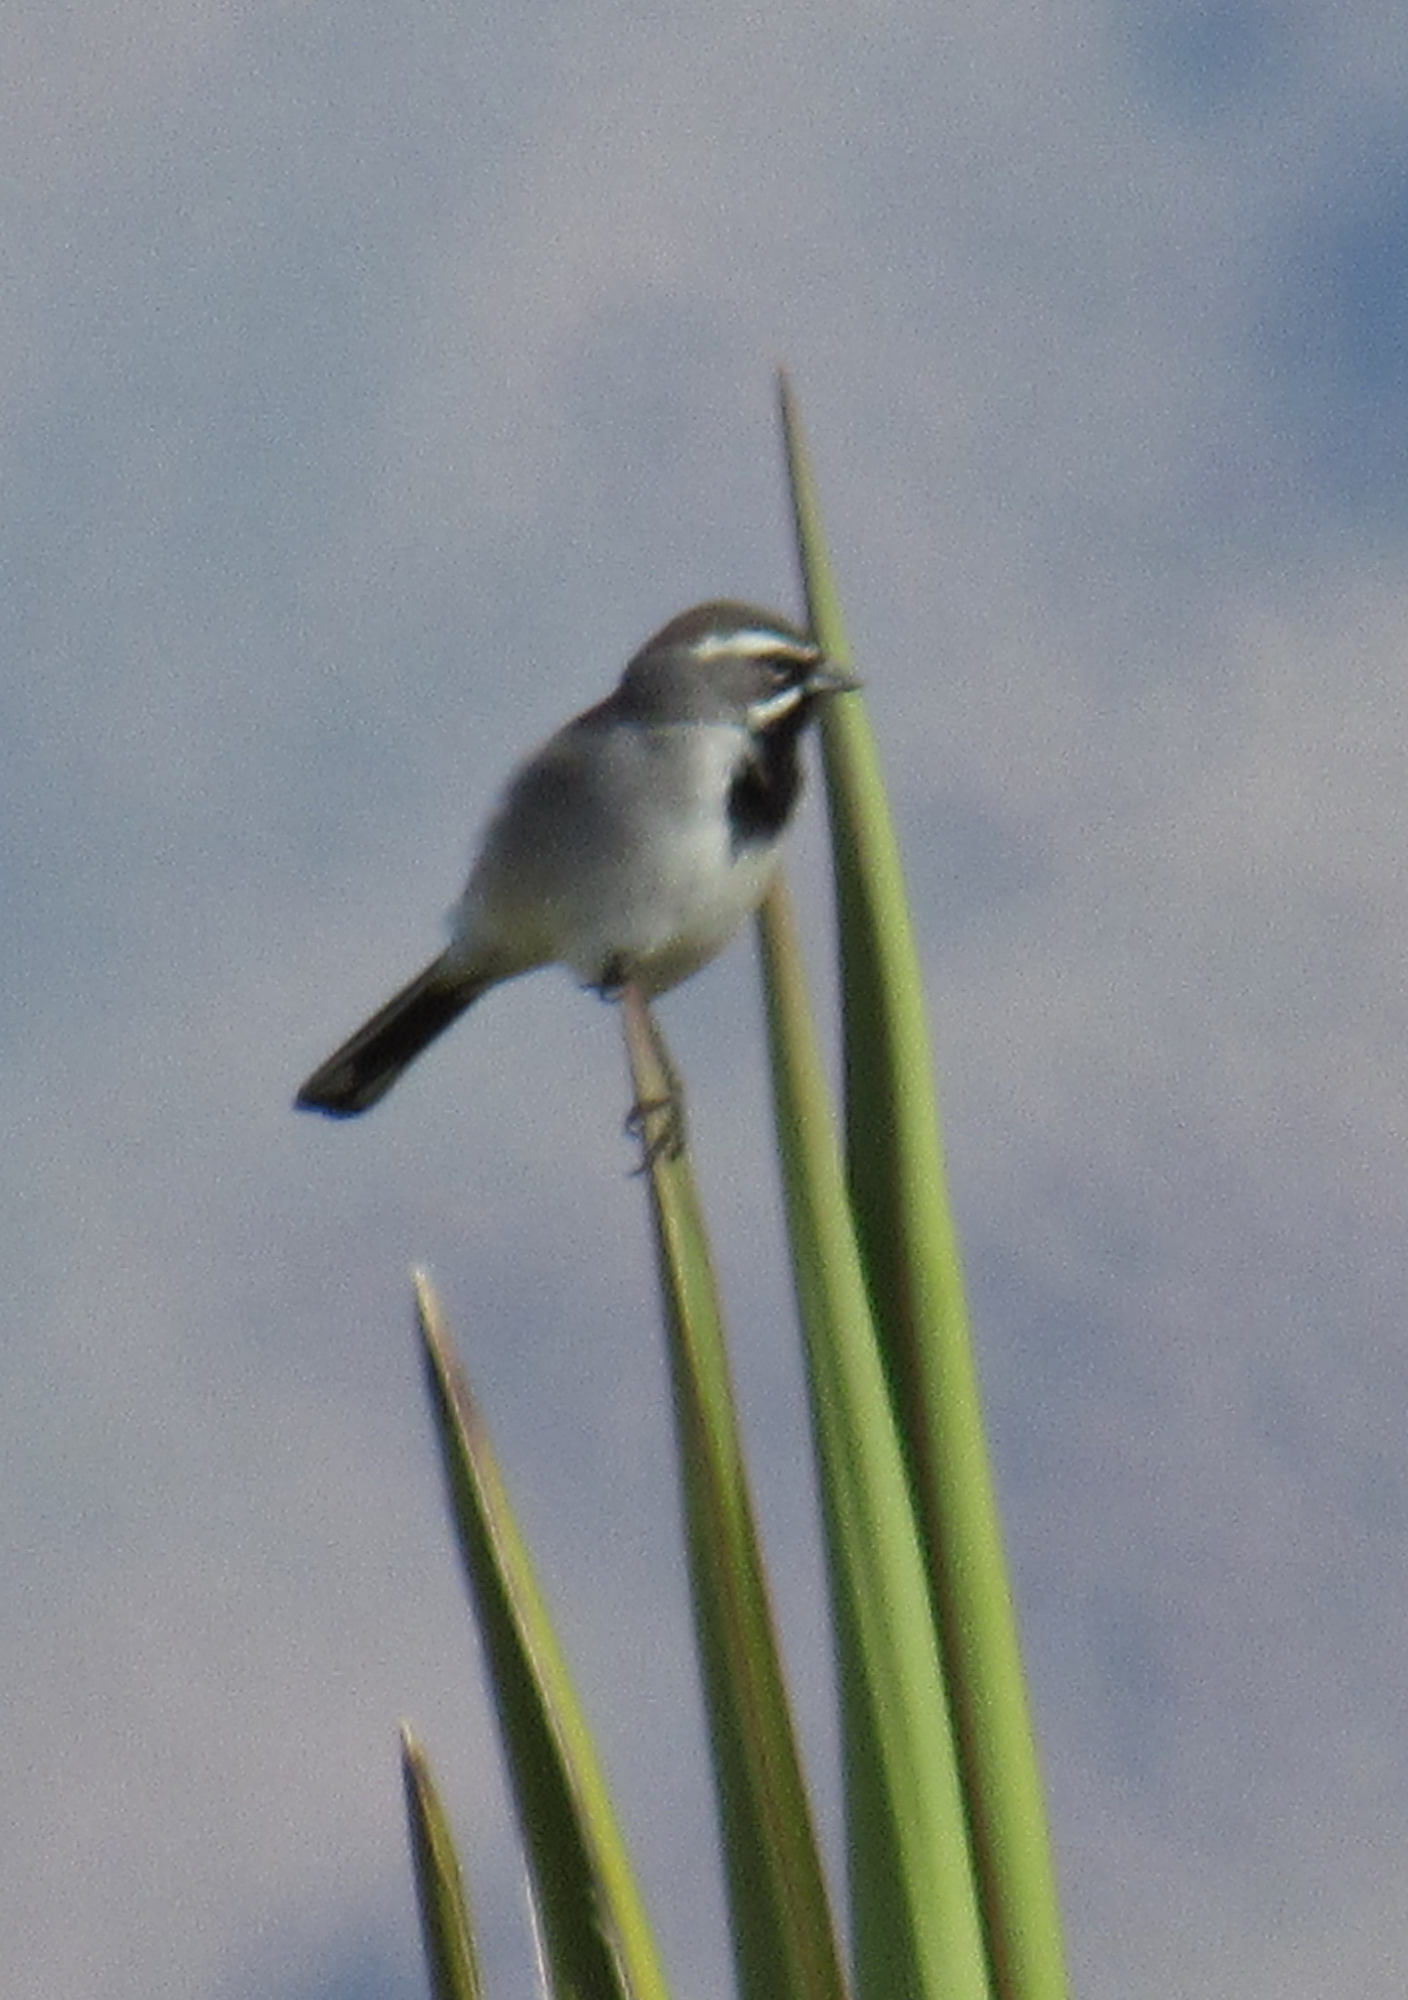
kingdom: Animalia
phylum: Chordata
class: Aves
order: Passeriformes
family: Passerellidae
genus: Amphispiza
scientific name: Amphispiza bilineata
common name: Black-throated sparrow
